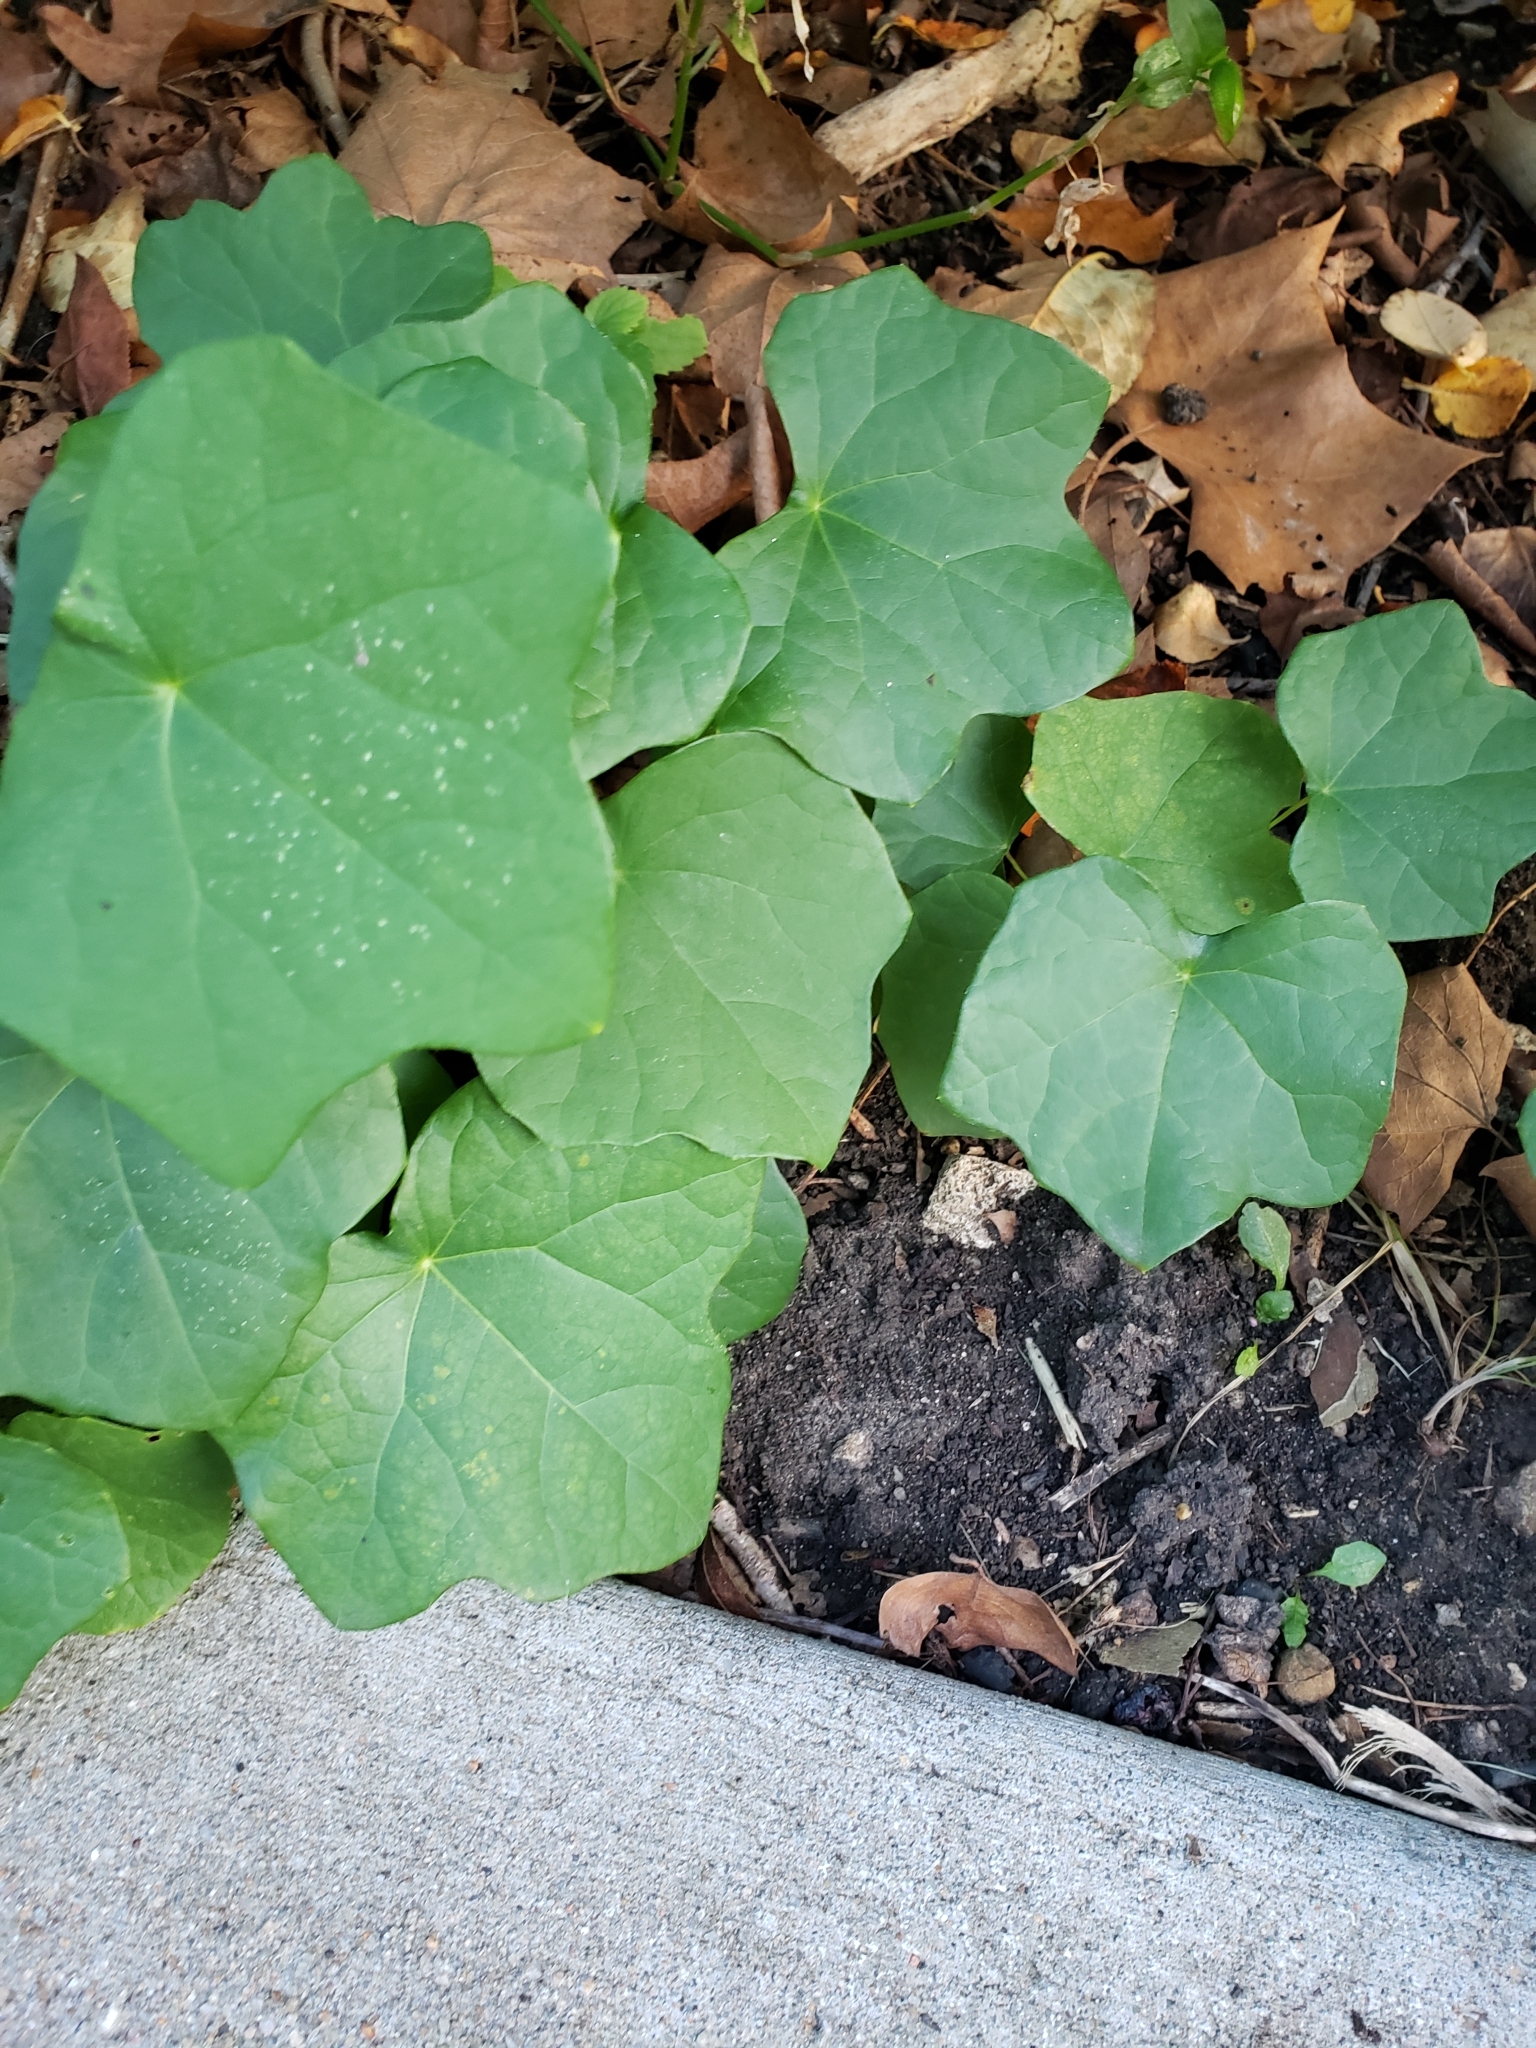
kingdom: Plantae
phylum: Tracheophyta
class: Magnoliopsida
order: Ranunculales
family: Menispermaceae
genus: Menispermum
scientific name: Menispermum canadense
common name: Moonseed
